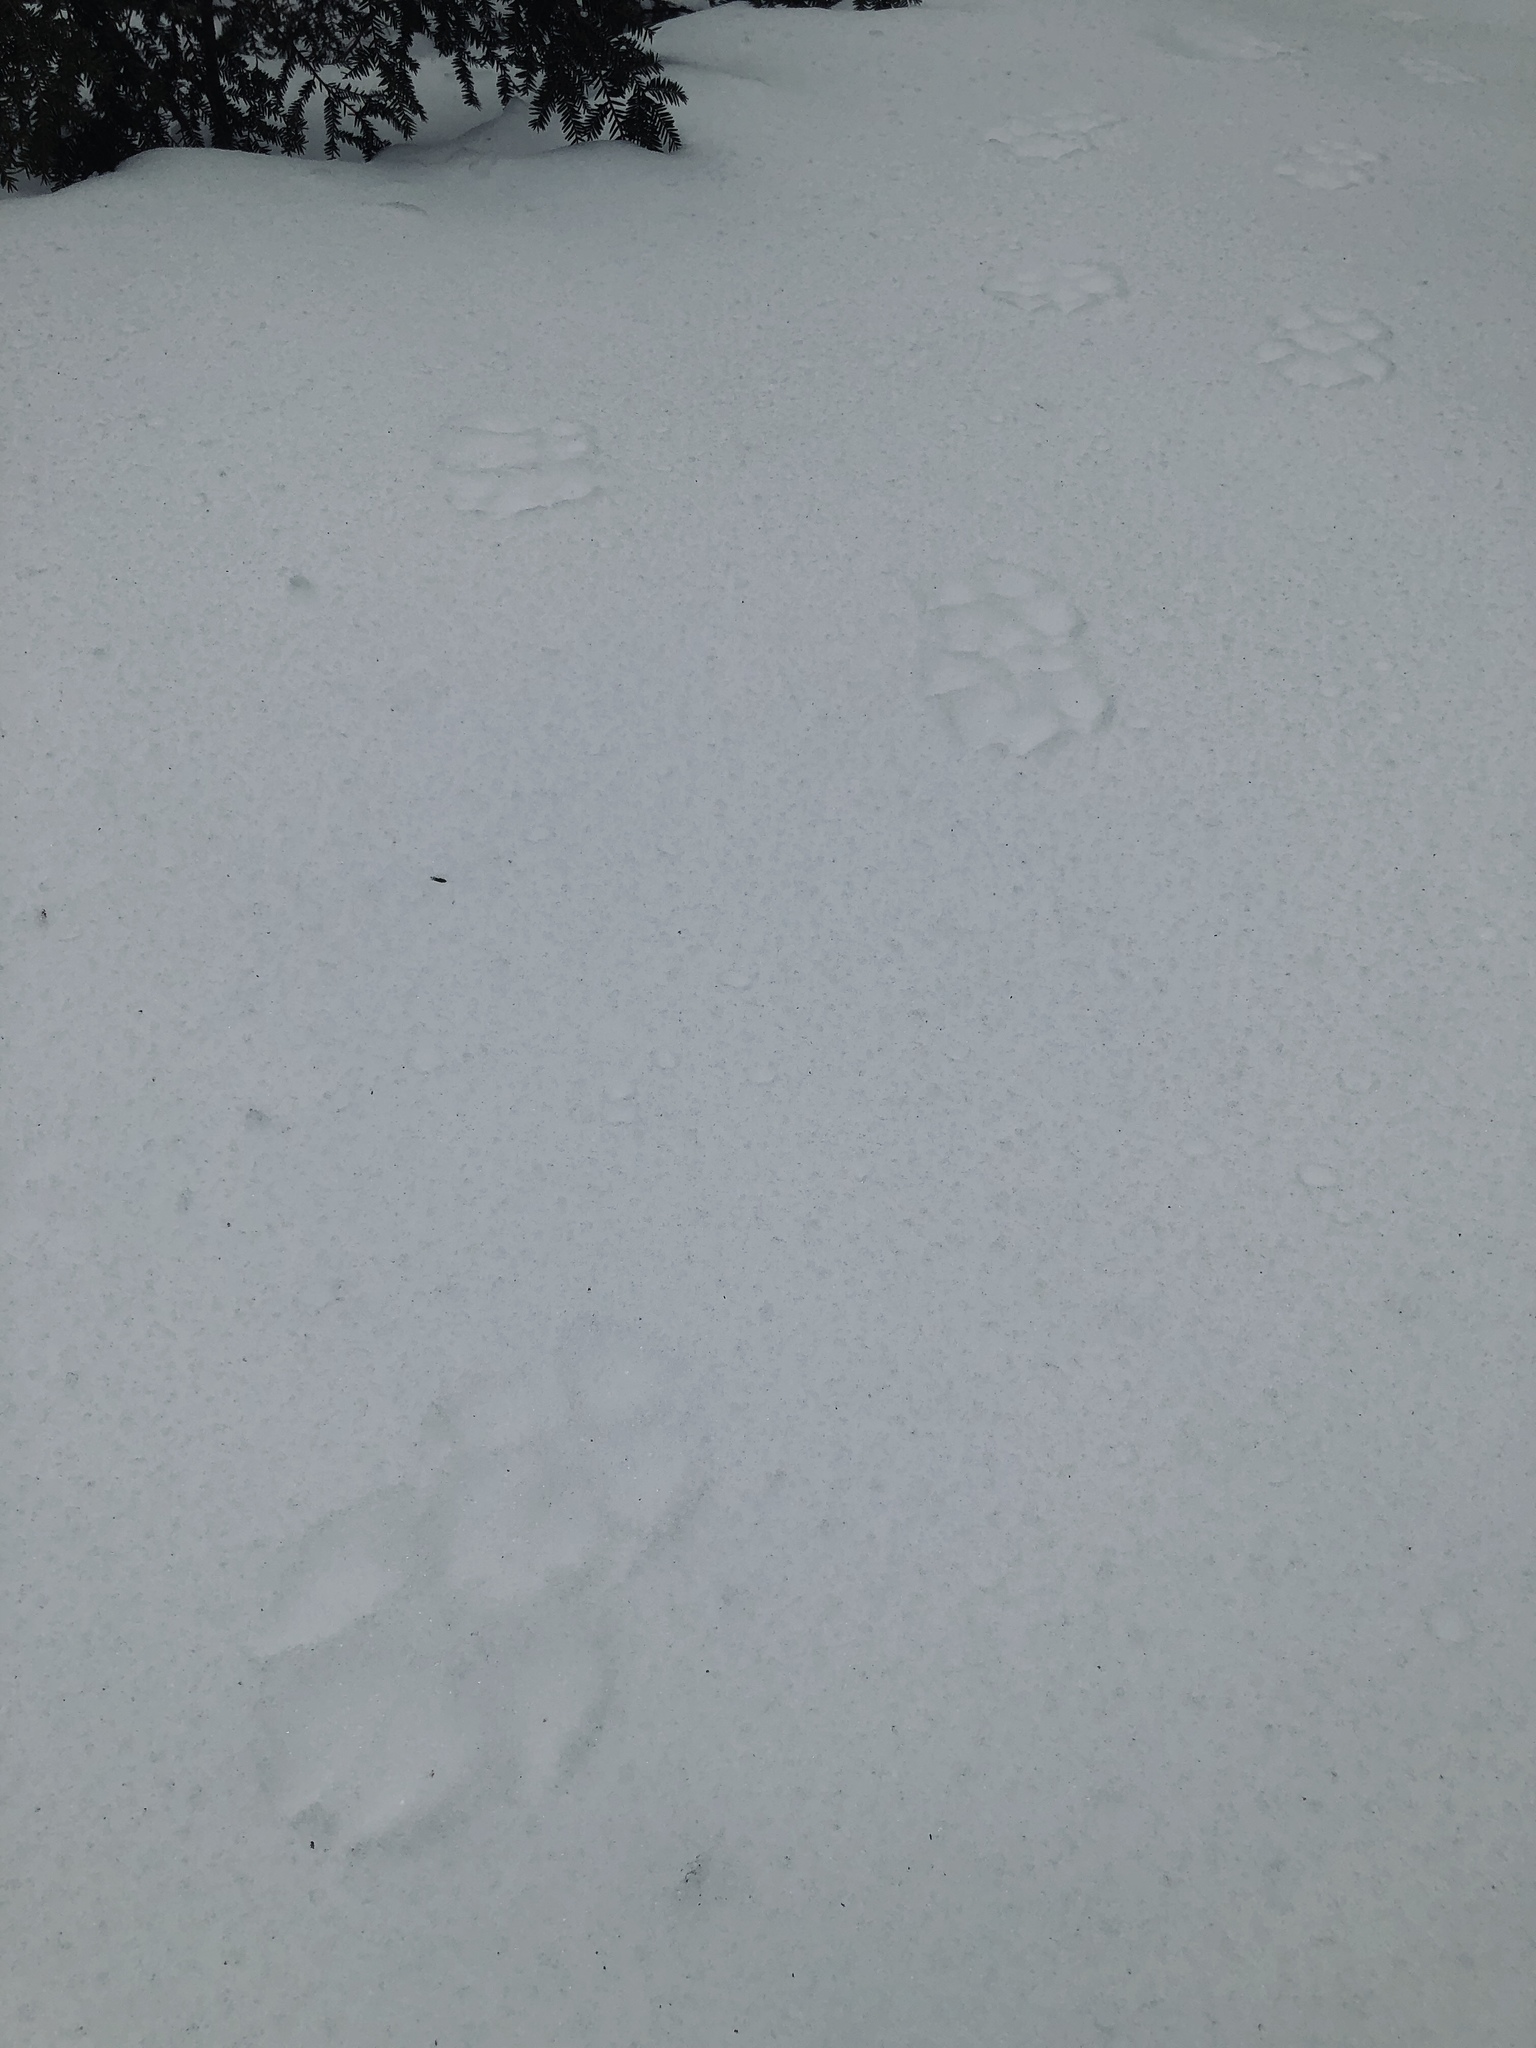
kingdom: Animalia
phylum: Chordata
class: Mammalia
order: Carnivora
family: Canidae
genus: Canis
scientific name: Canis latrans
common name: Coyote
